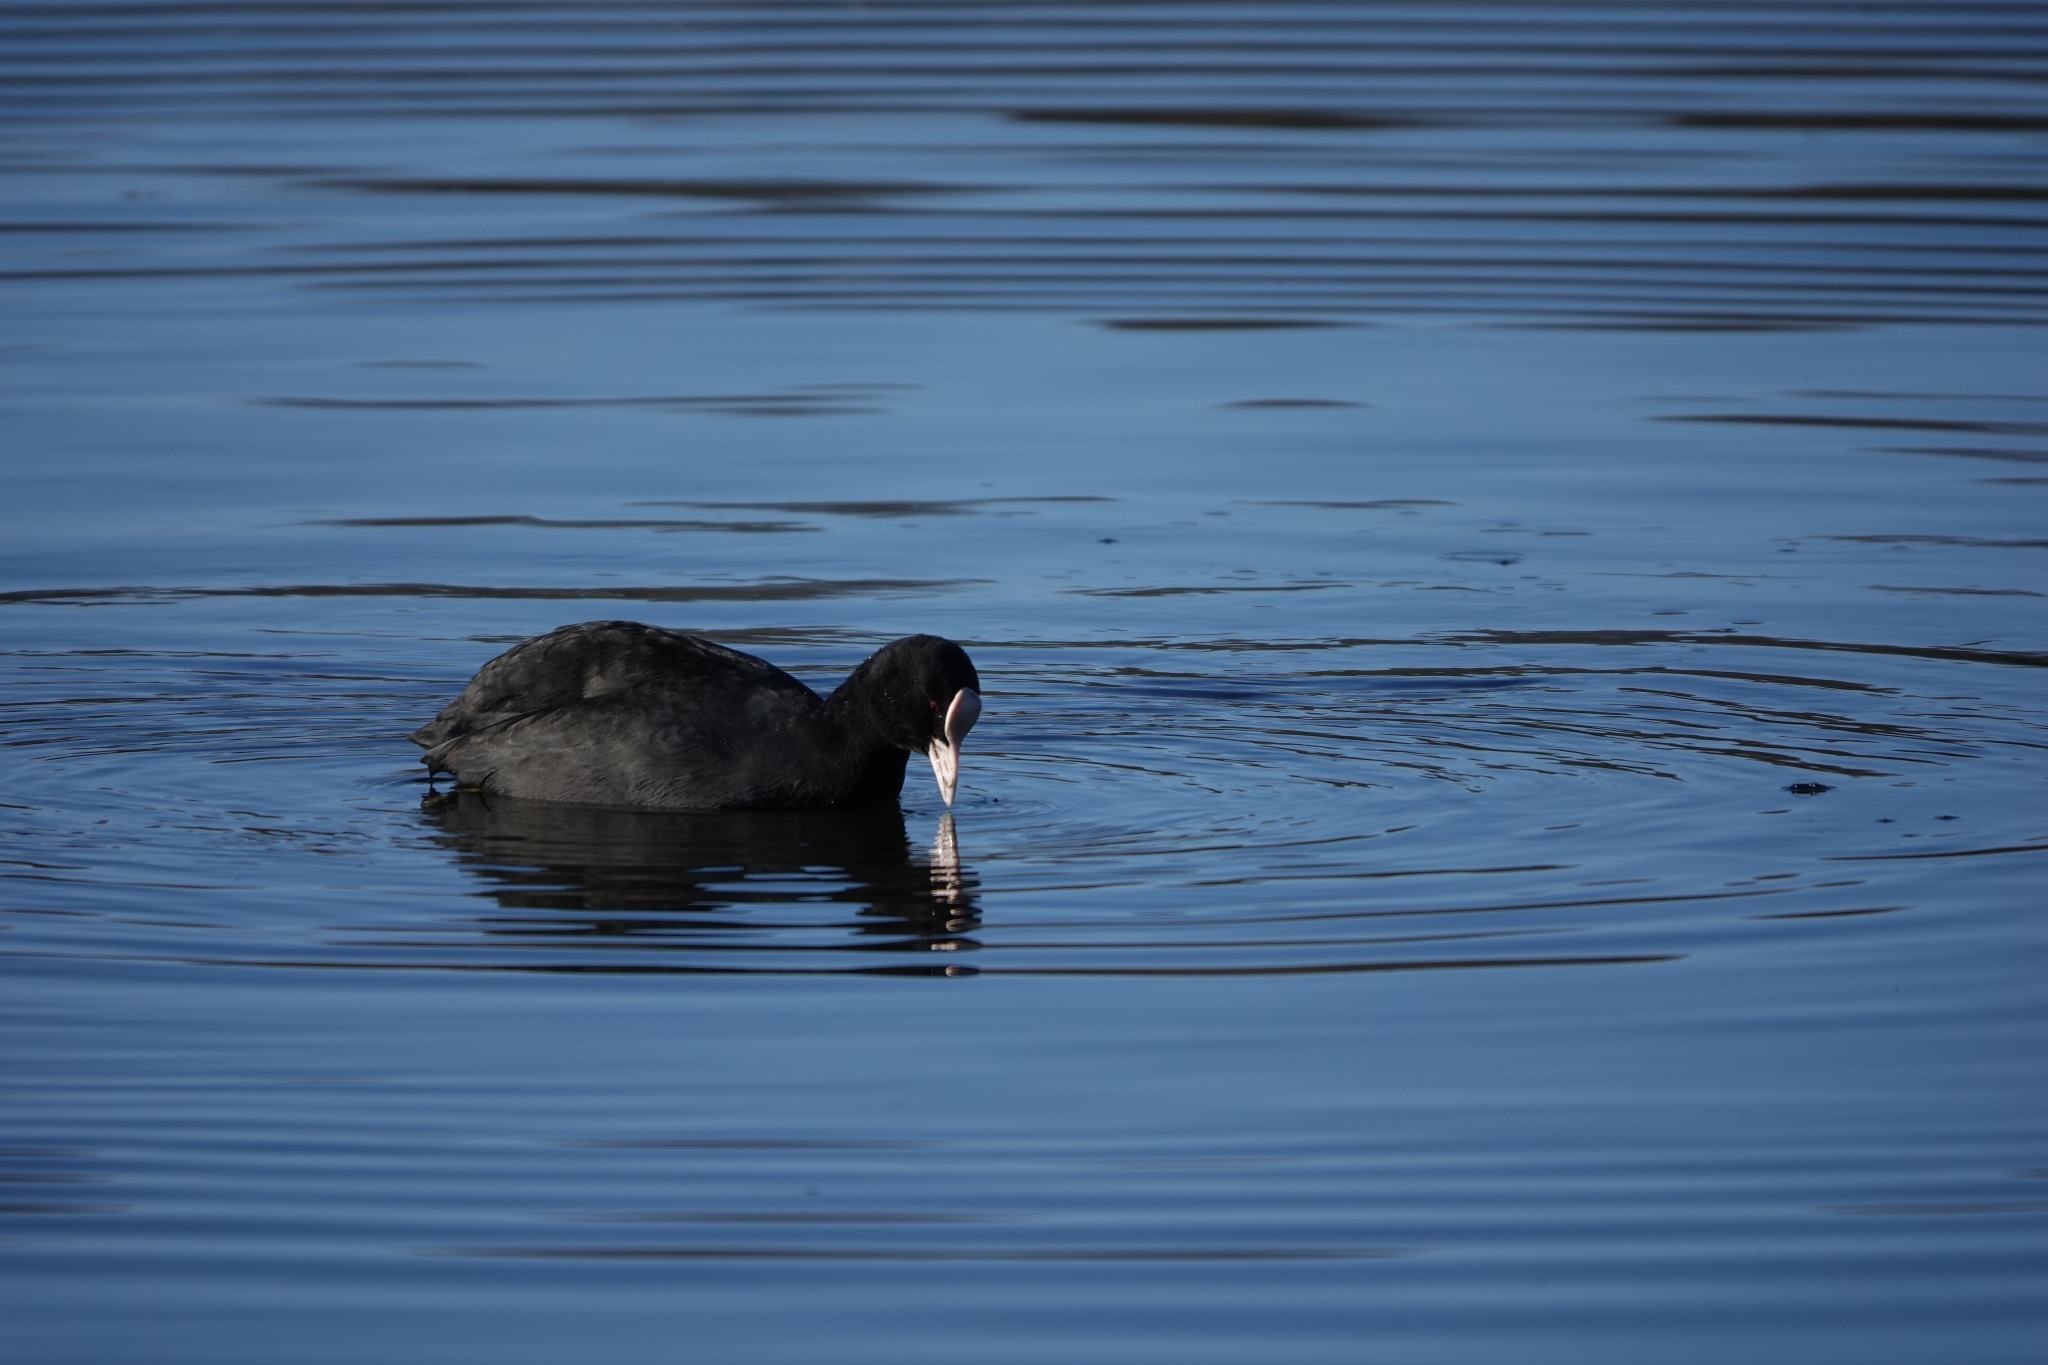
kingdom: Animalia
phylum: Chordata
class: Aves
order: Gruiformes
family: Rallidae
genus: Fulica
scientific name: Fulica atra
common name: Eurasian coot
